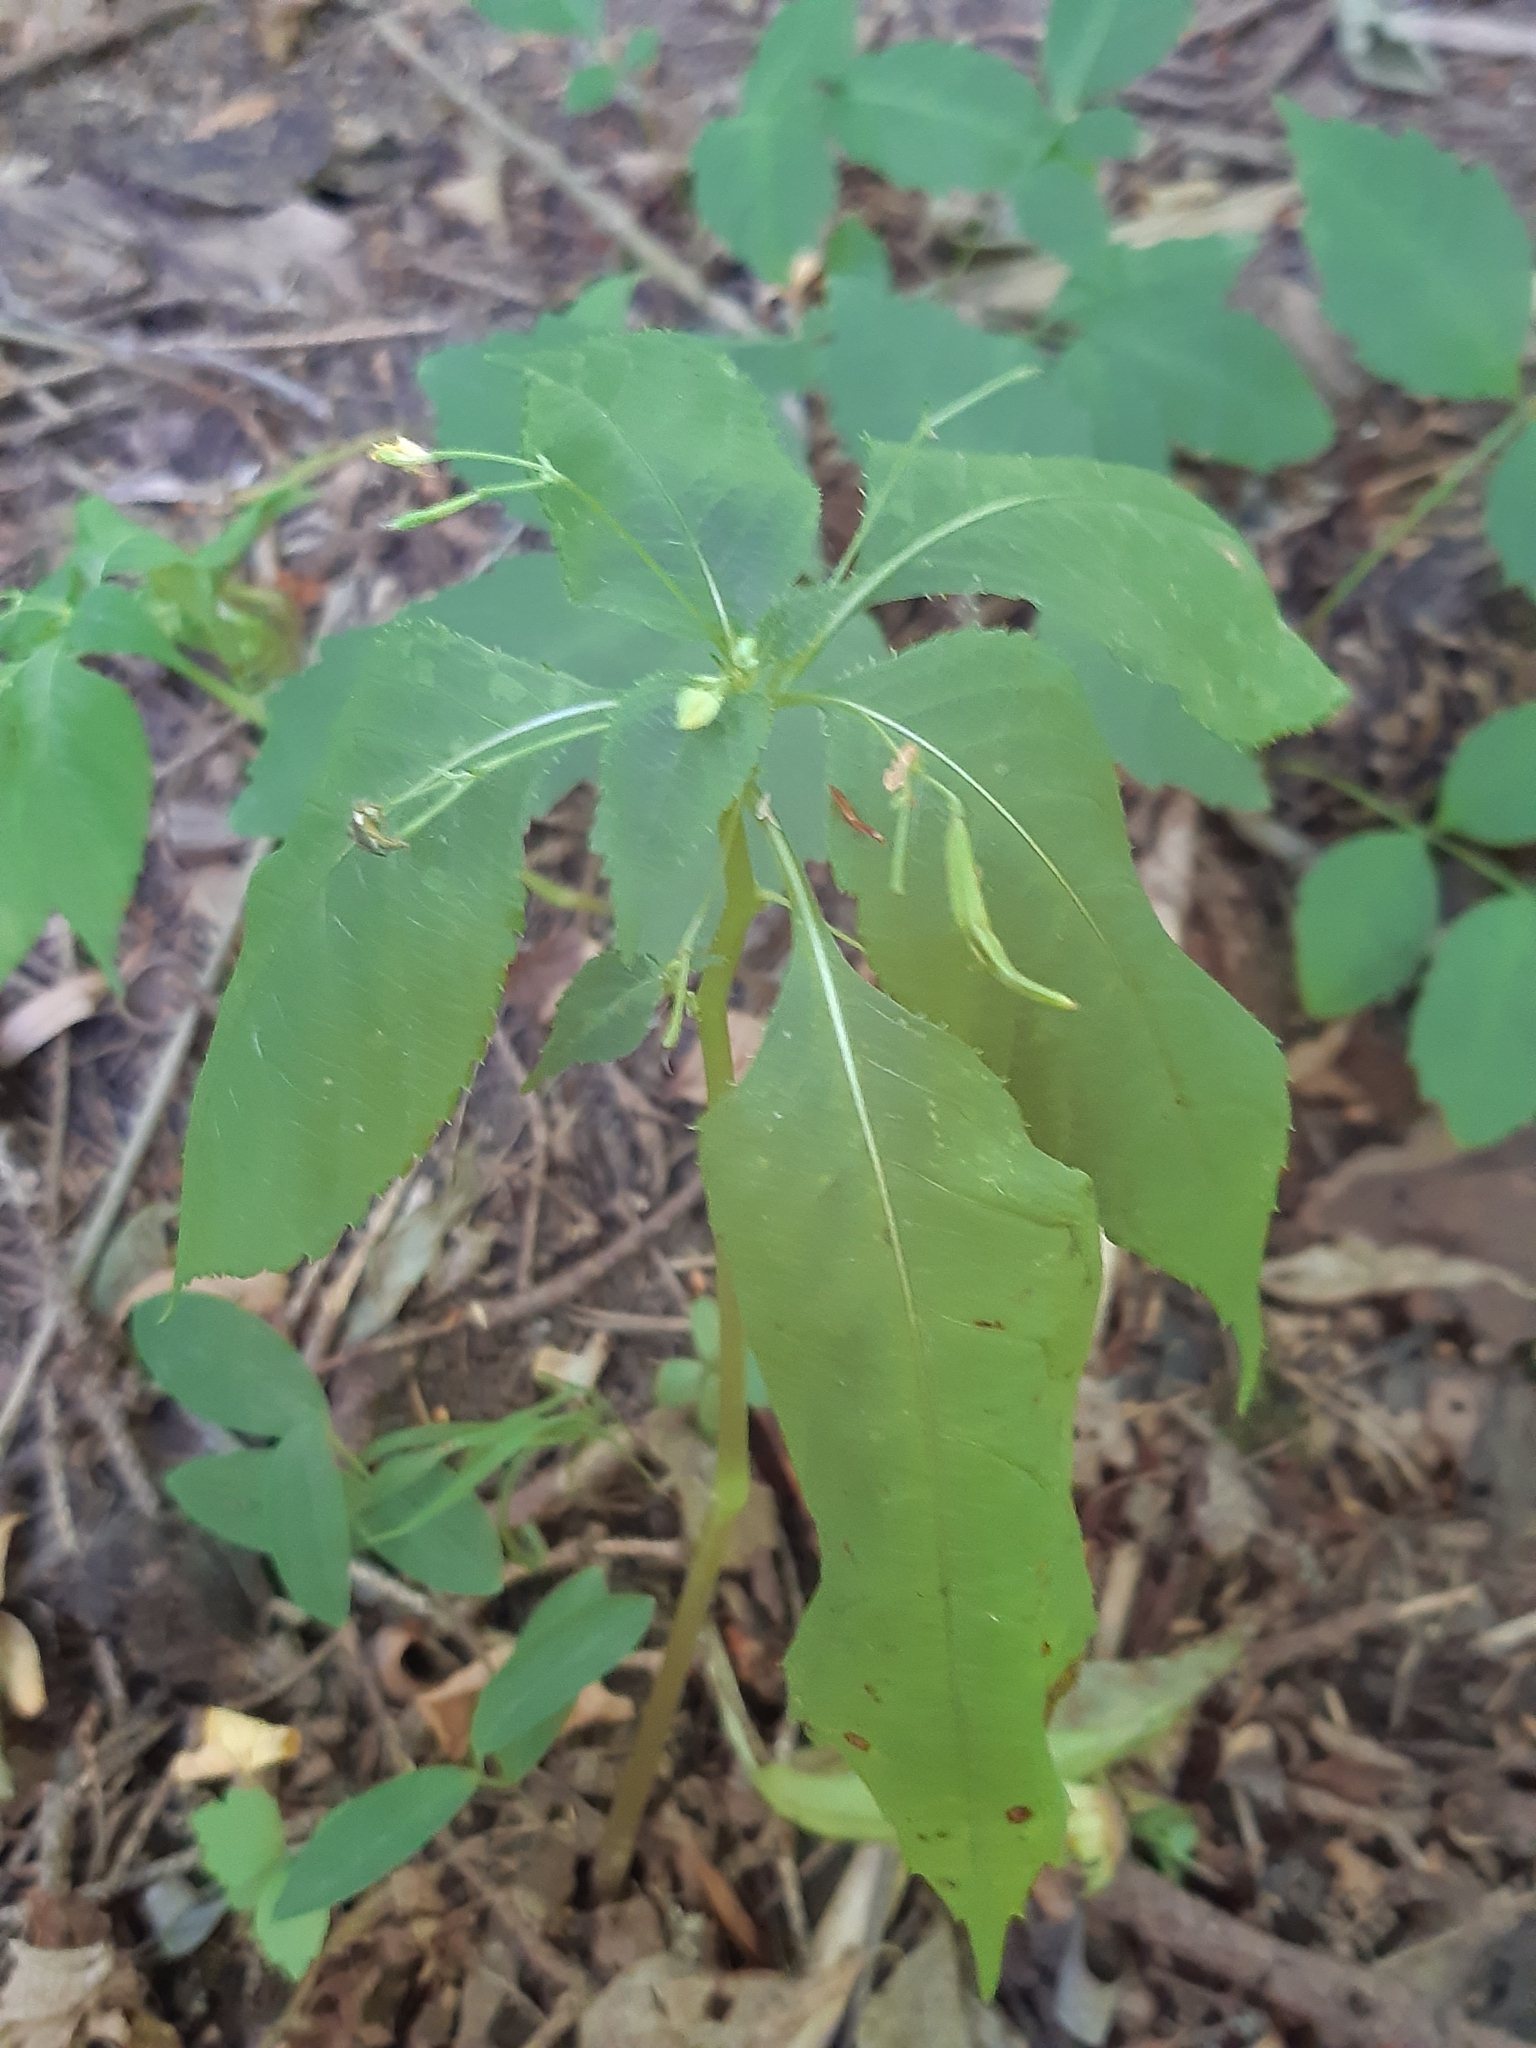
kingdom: Plantae
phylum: Tracheophyta
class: Magnoliopsida
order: Ericales
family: Balsaminaceae
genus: Impatiens
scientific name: Impatiens parviflora
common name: Small balsam
